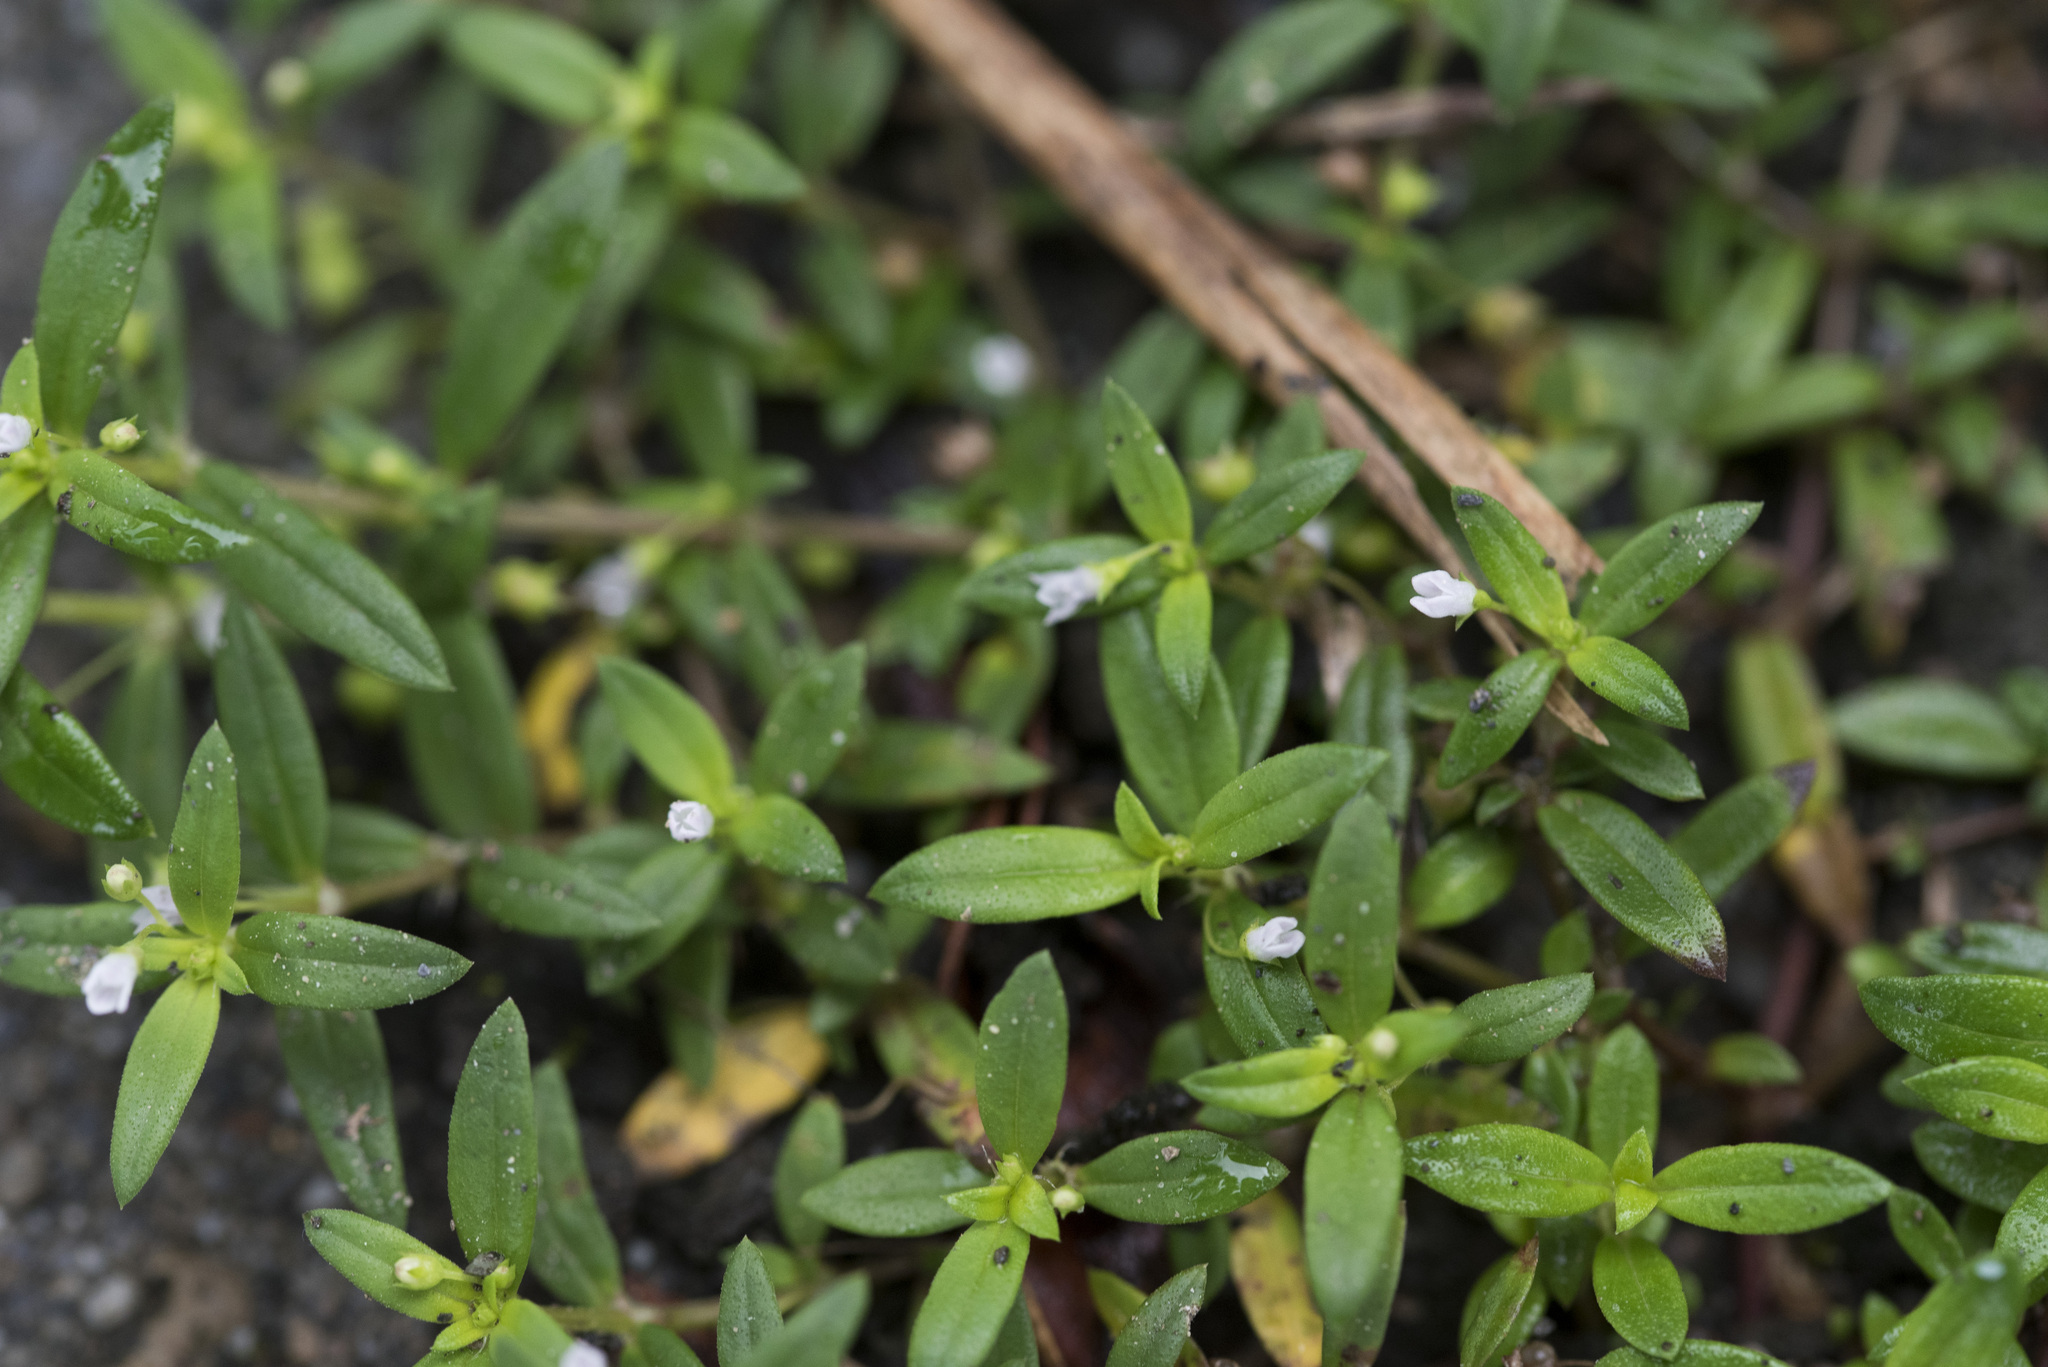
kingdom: Plantae
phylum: Tracheophyta
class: Magnoliopsida
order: Gentianales
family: Rubiaceae
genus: Oldenlandia
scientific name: Oldenlandia corymbosa
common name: Flat-top mille graines
